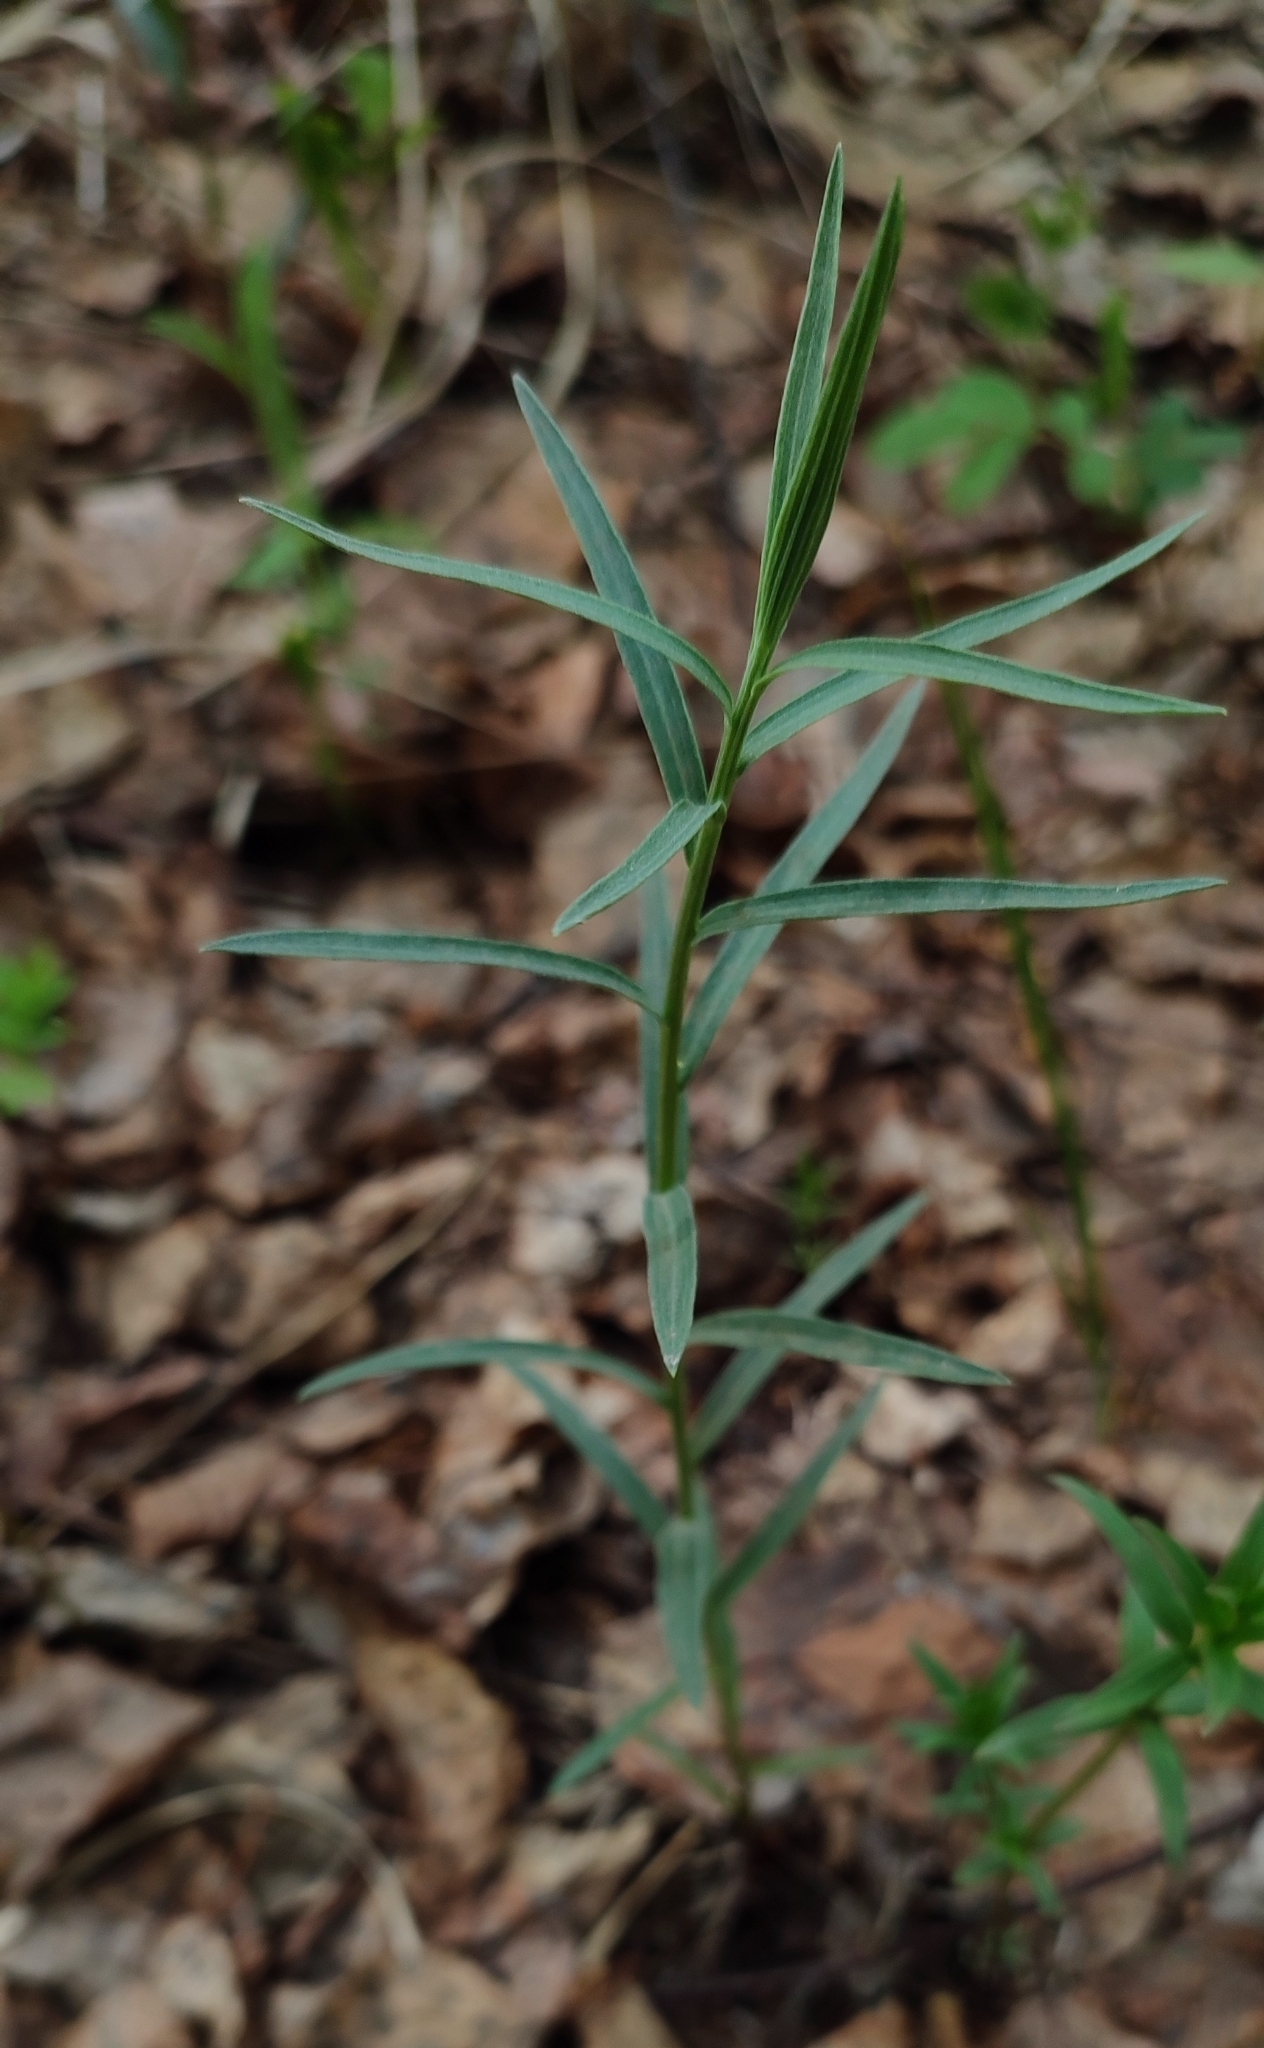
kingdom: Plantae
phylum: Tracheophyta
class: Magnoliopsida
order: Malpighiales
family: Euphorbiaceae
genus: Euphorbia
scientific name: Euphorbia virgata
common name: Leafy spurge
